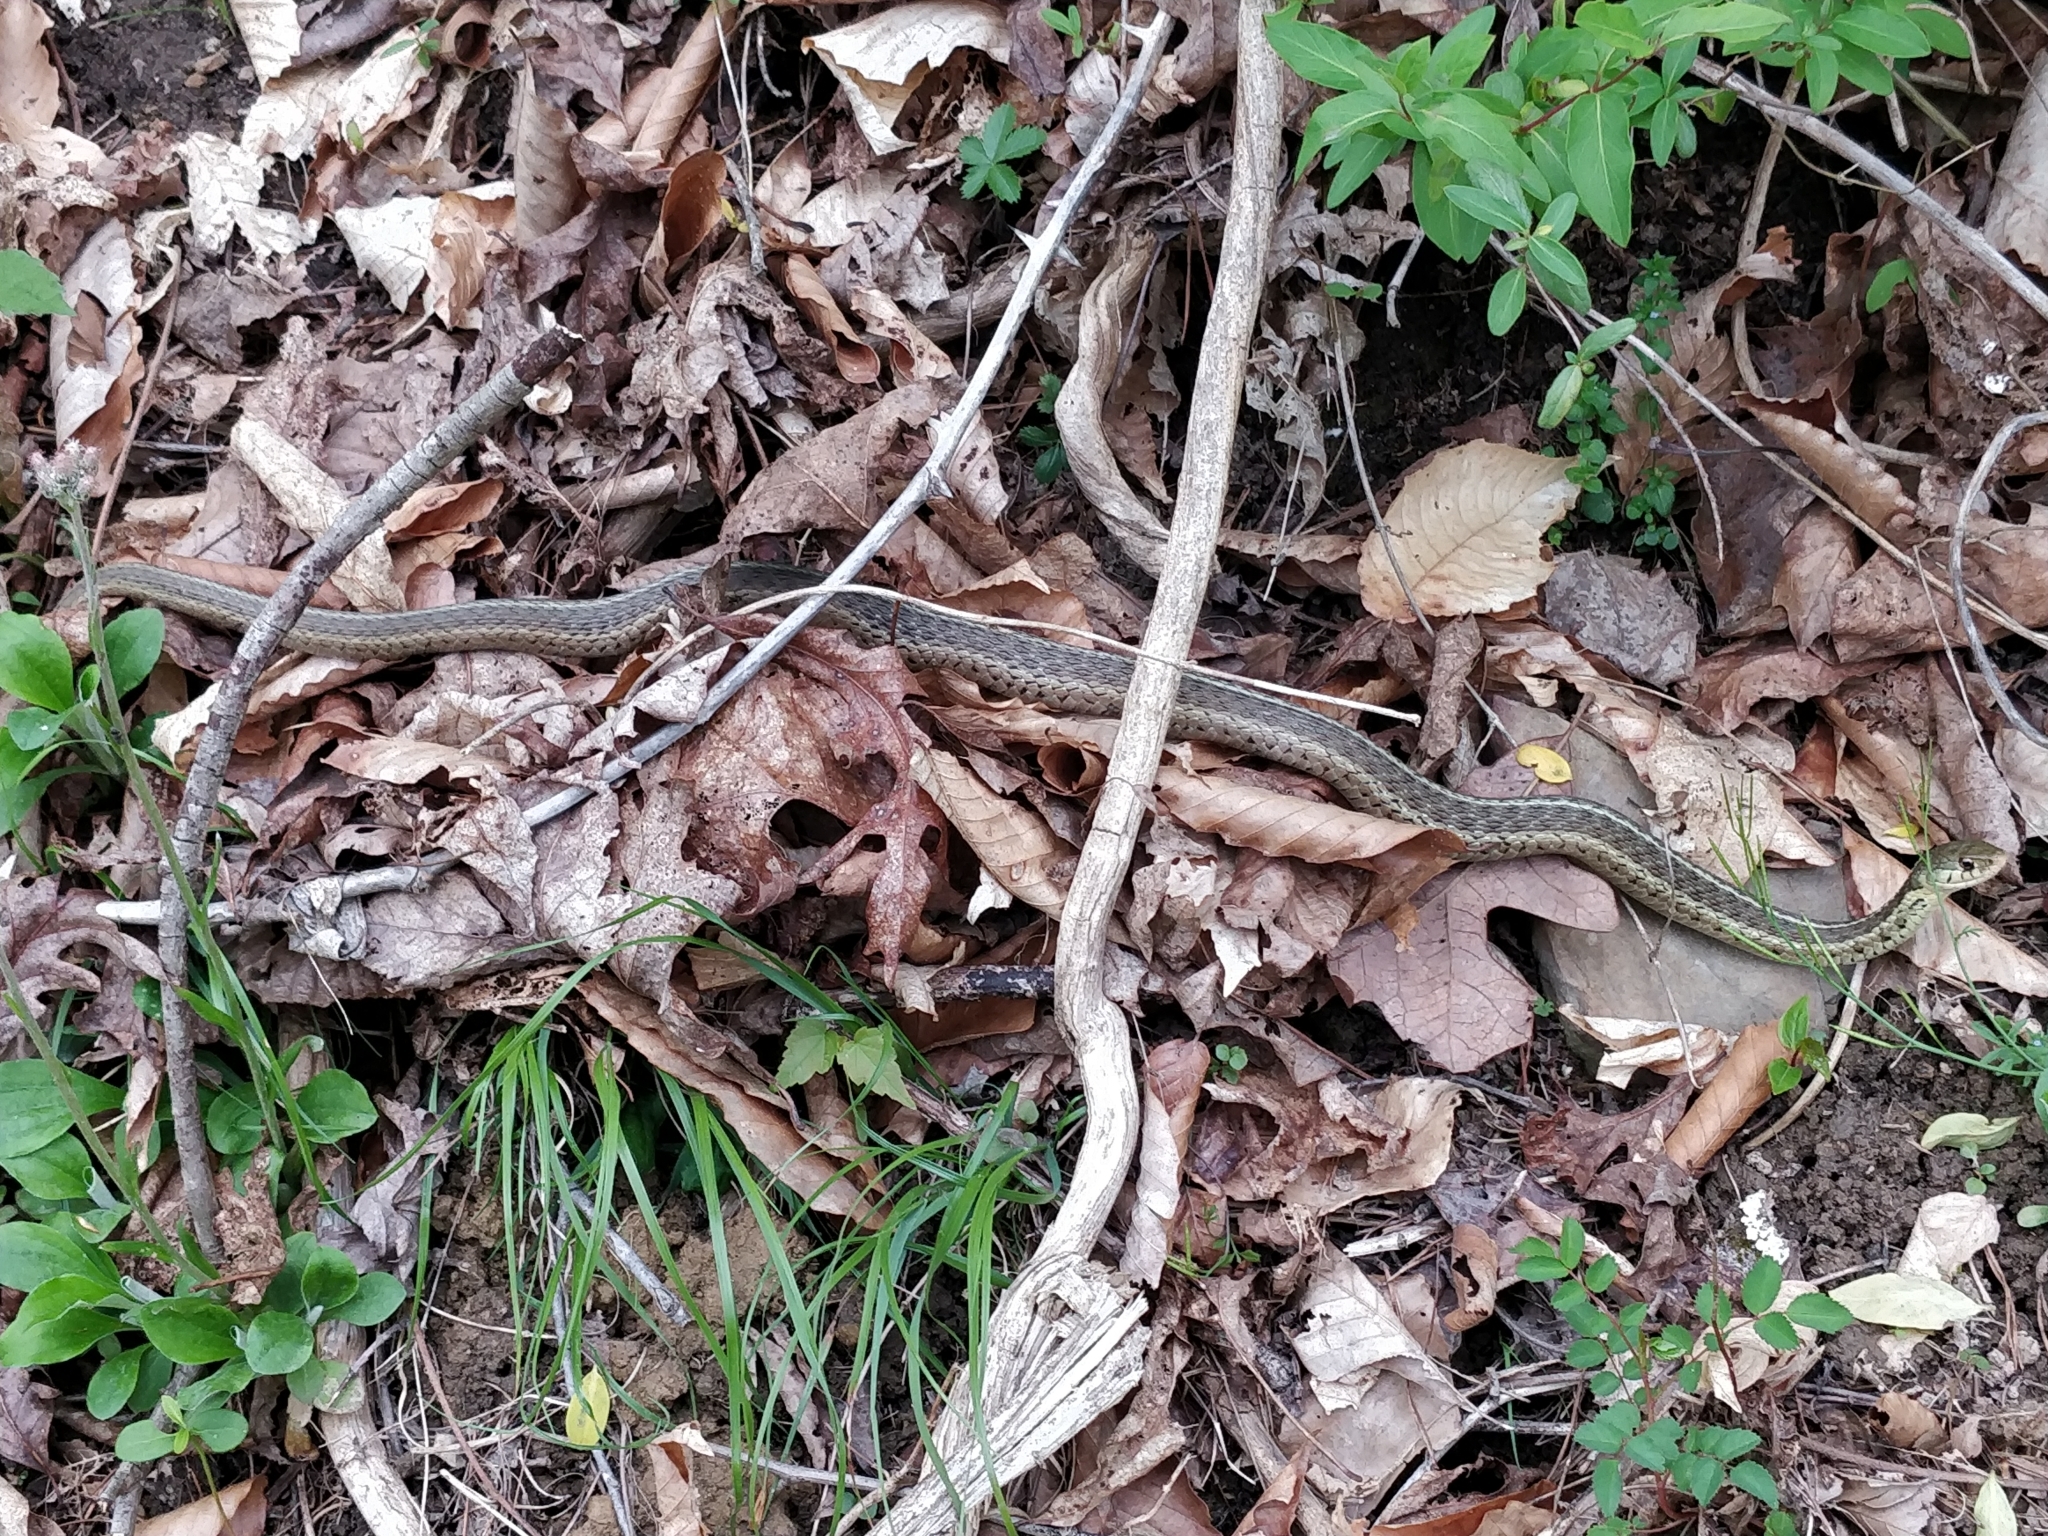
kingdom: Animalia
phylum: Chordata
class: Squamata
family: Colubridae
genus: Thamnophis
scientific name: Thamnophis sirtalis
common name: Common garter snake
